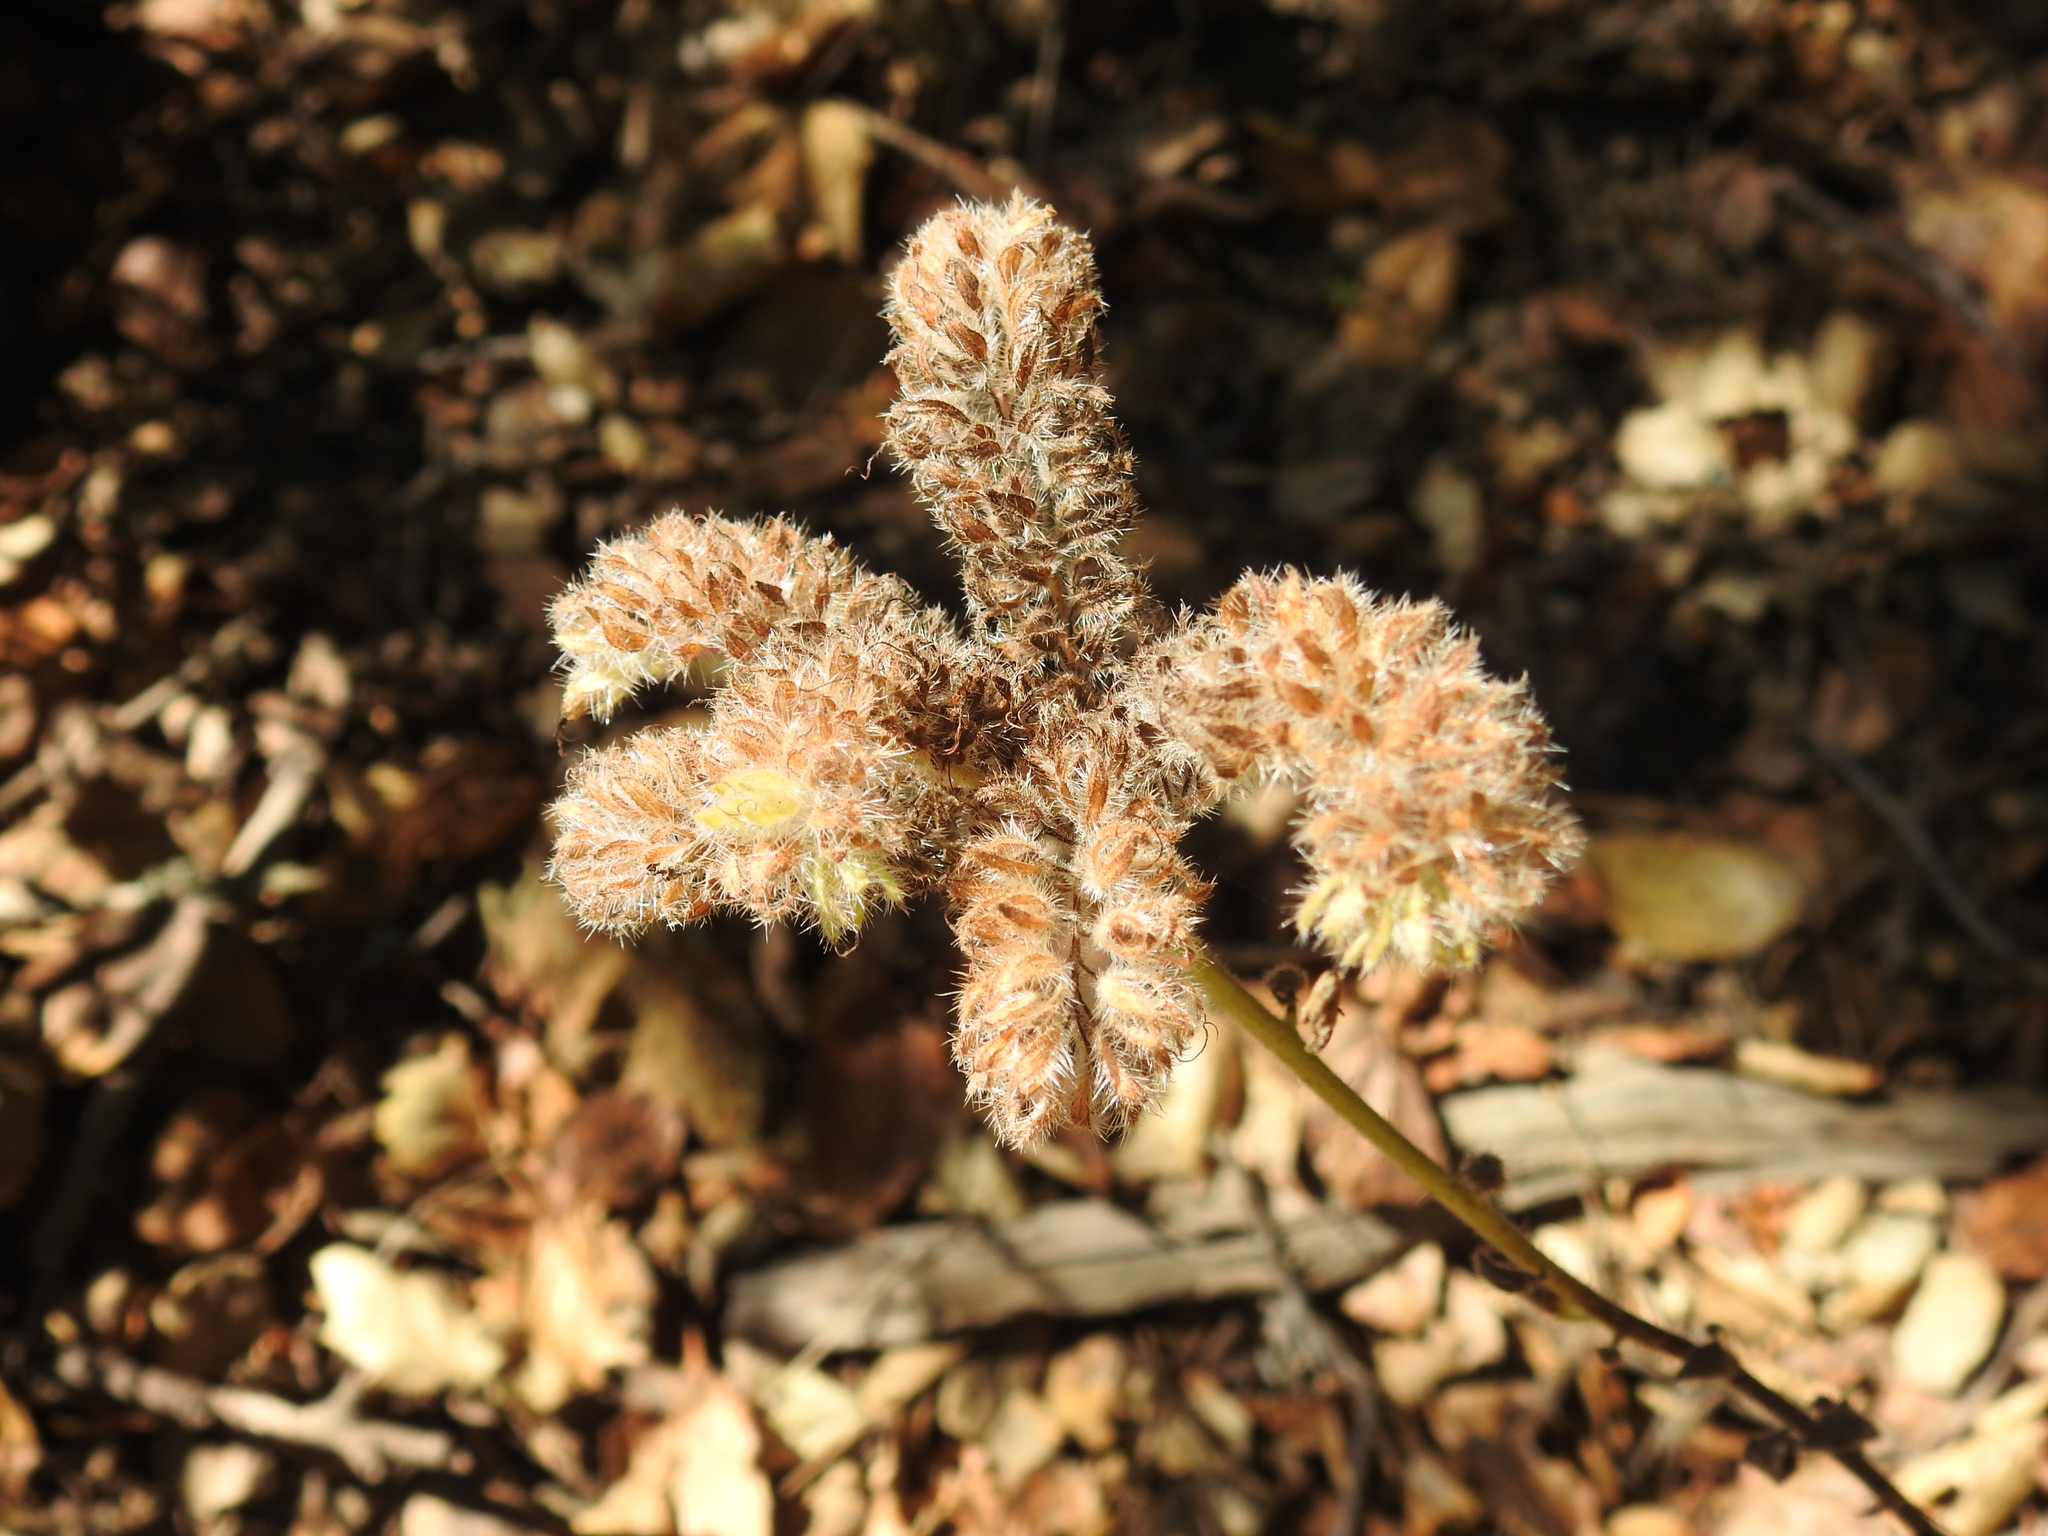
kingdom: Plantae
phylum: Tracheophyta
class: Magnoliopsida
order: Boraginales
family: Hydrophyllaceae
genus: Phacelia
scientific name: Phacelia californica
